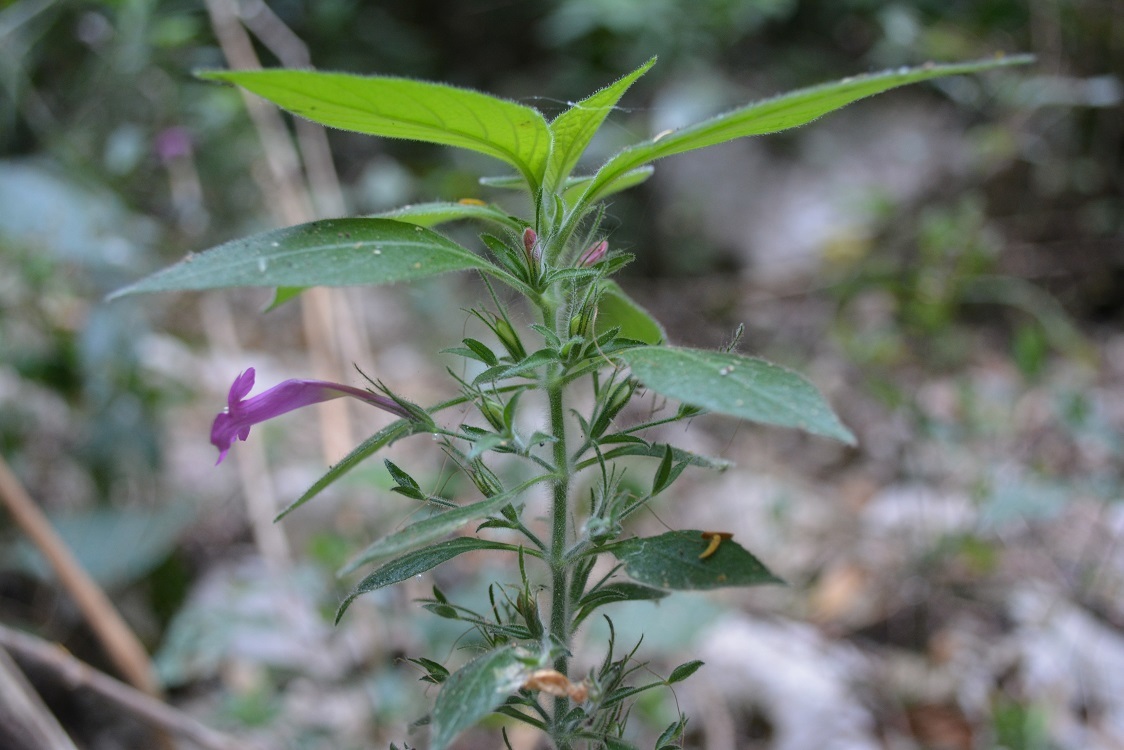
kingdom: Plantae
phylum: Tracheophyta
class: Magnoliopsida
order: Lamiales
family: Acanthaceae
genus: Ruellia
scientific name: Ruellia inundata
